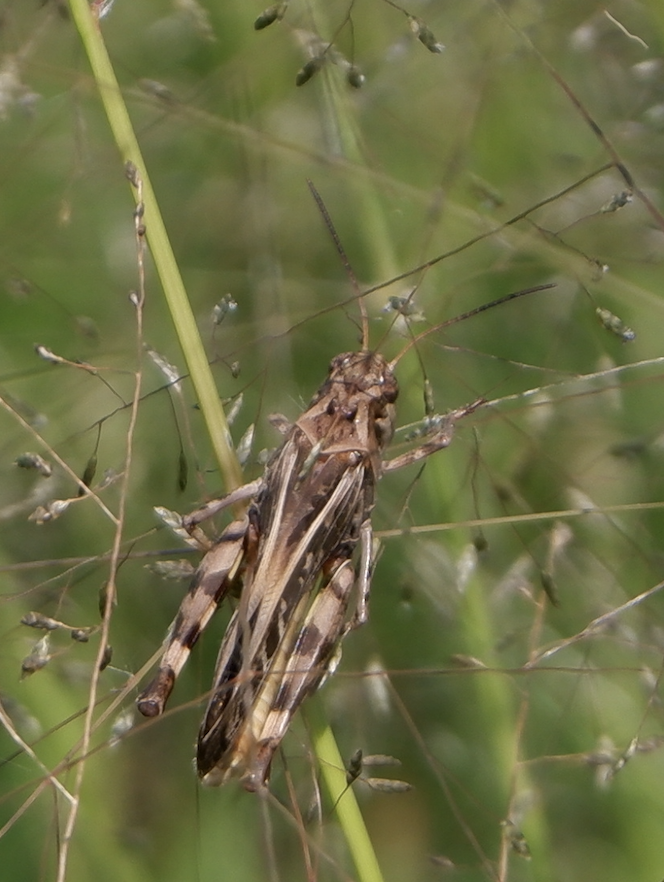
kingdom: Animalia
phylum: Arthropoda
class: Insecta
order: Orthoptera
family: Acrididae
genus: Hippiscus
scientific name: Hippiscus ocelote
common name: Wrinkled grasshopper
